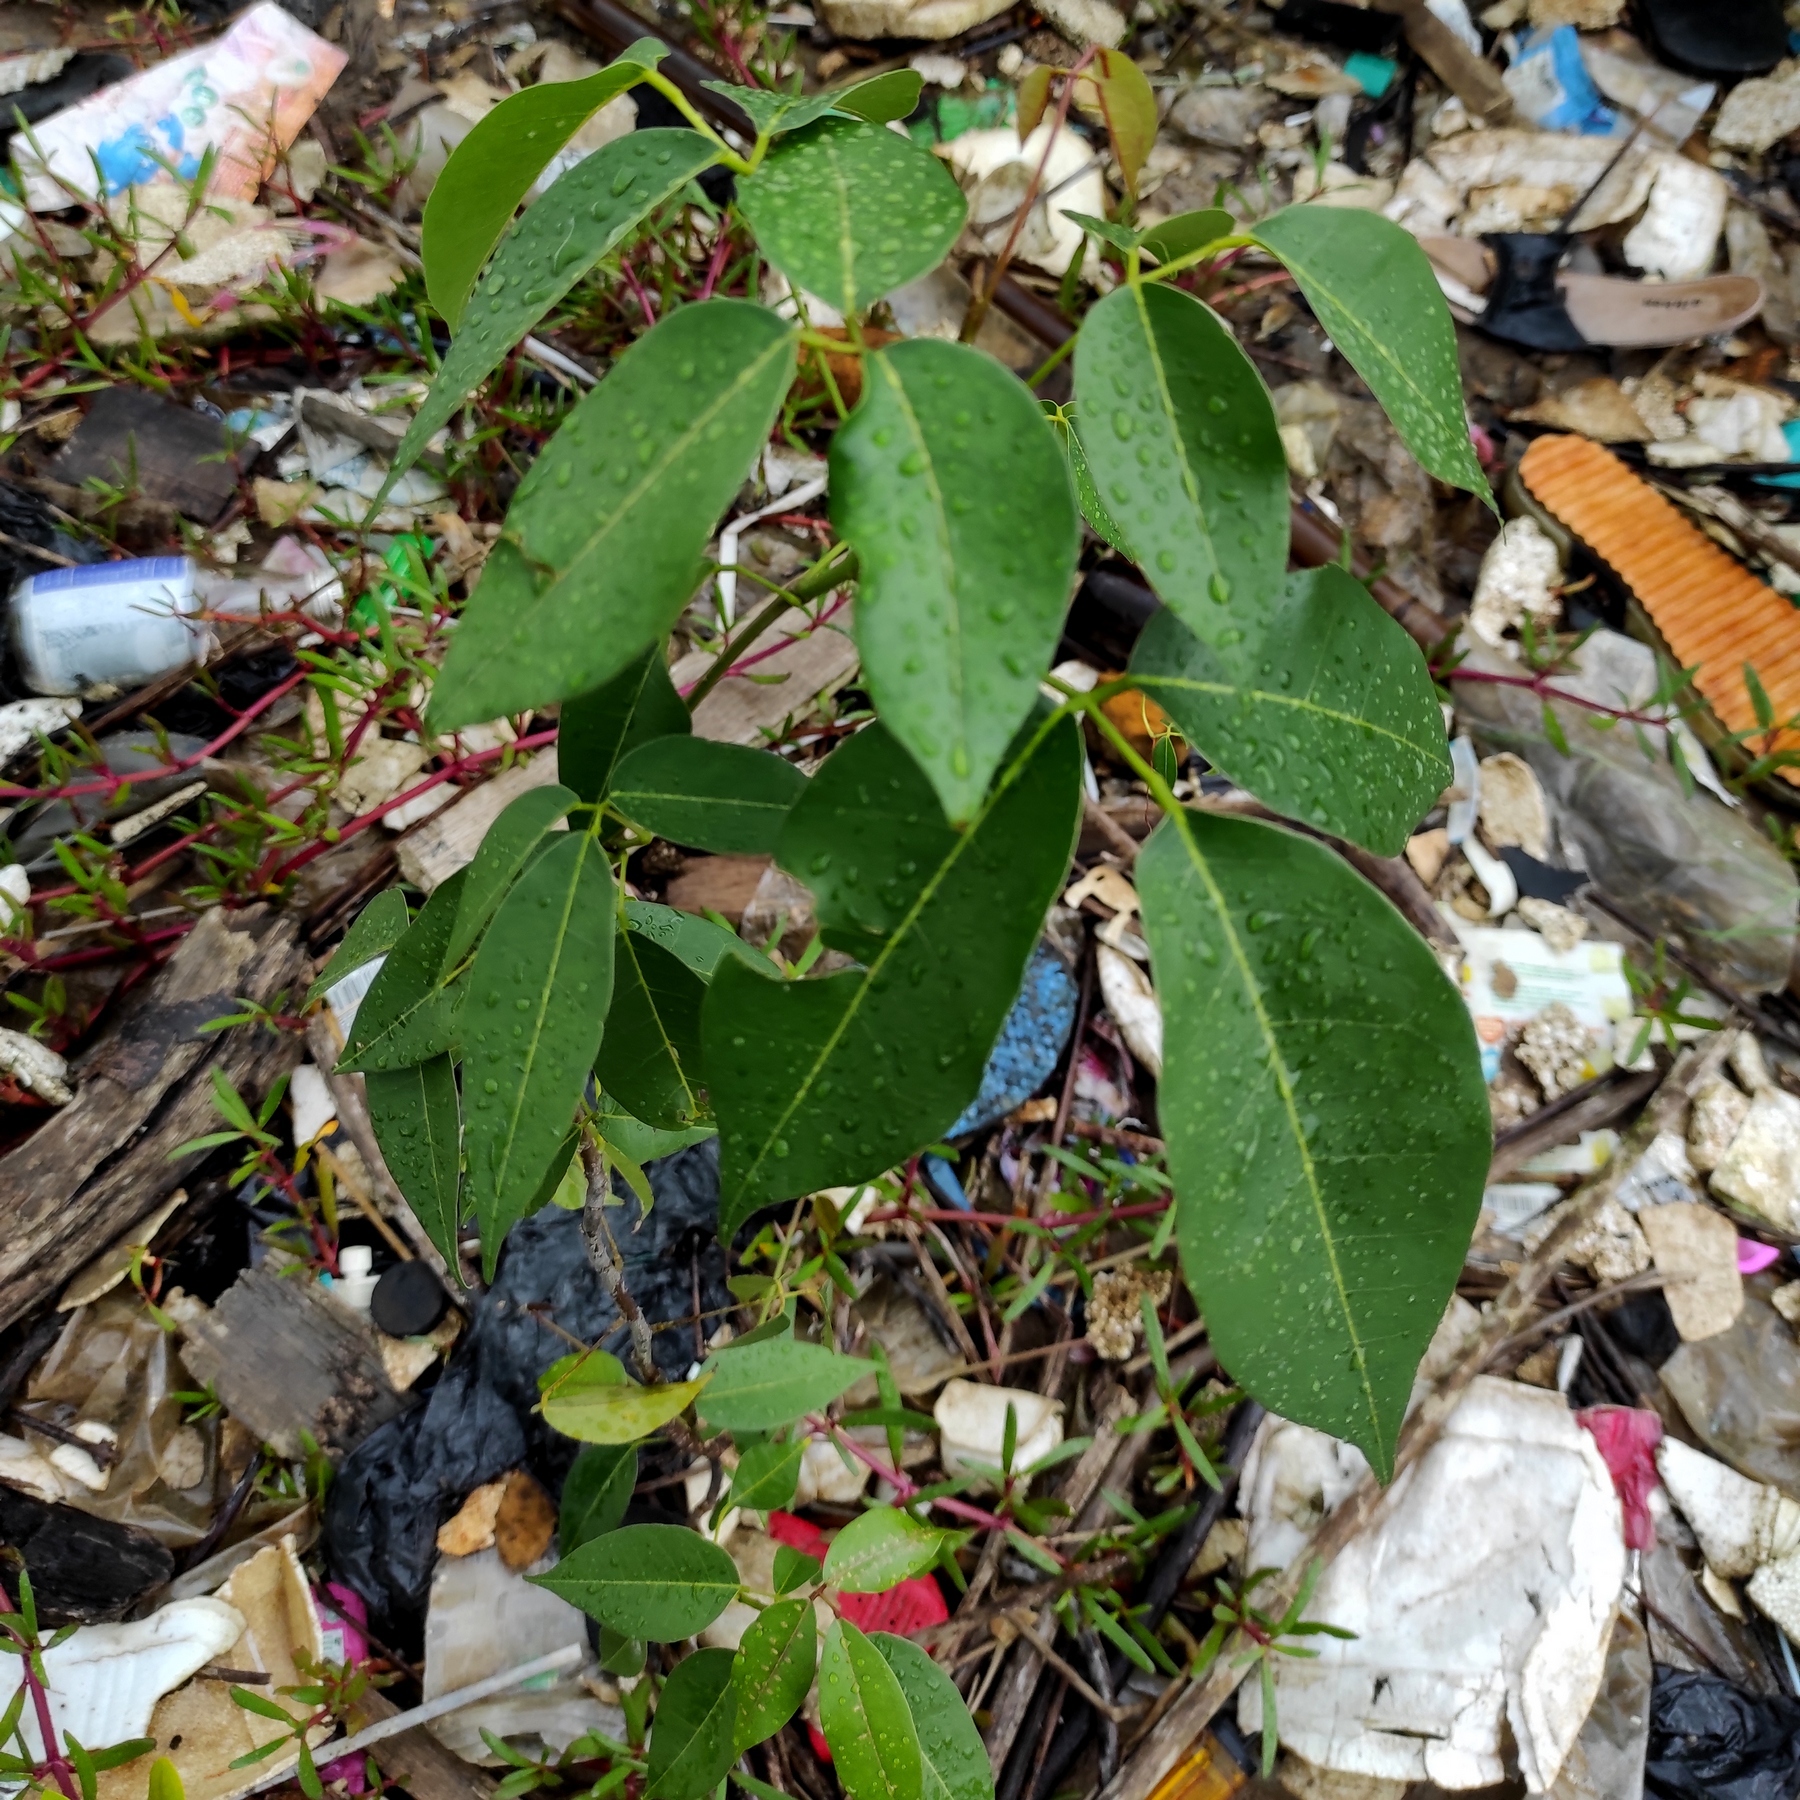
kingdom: Plantae
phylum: Tracheophyta
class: Magnoliopsida
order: Fabales
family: Fabaceae
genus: Derris
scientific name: Derris trifoliata
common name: Three-leaf derris
